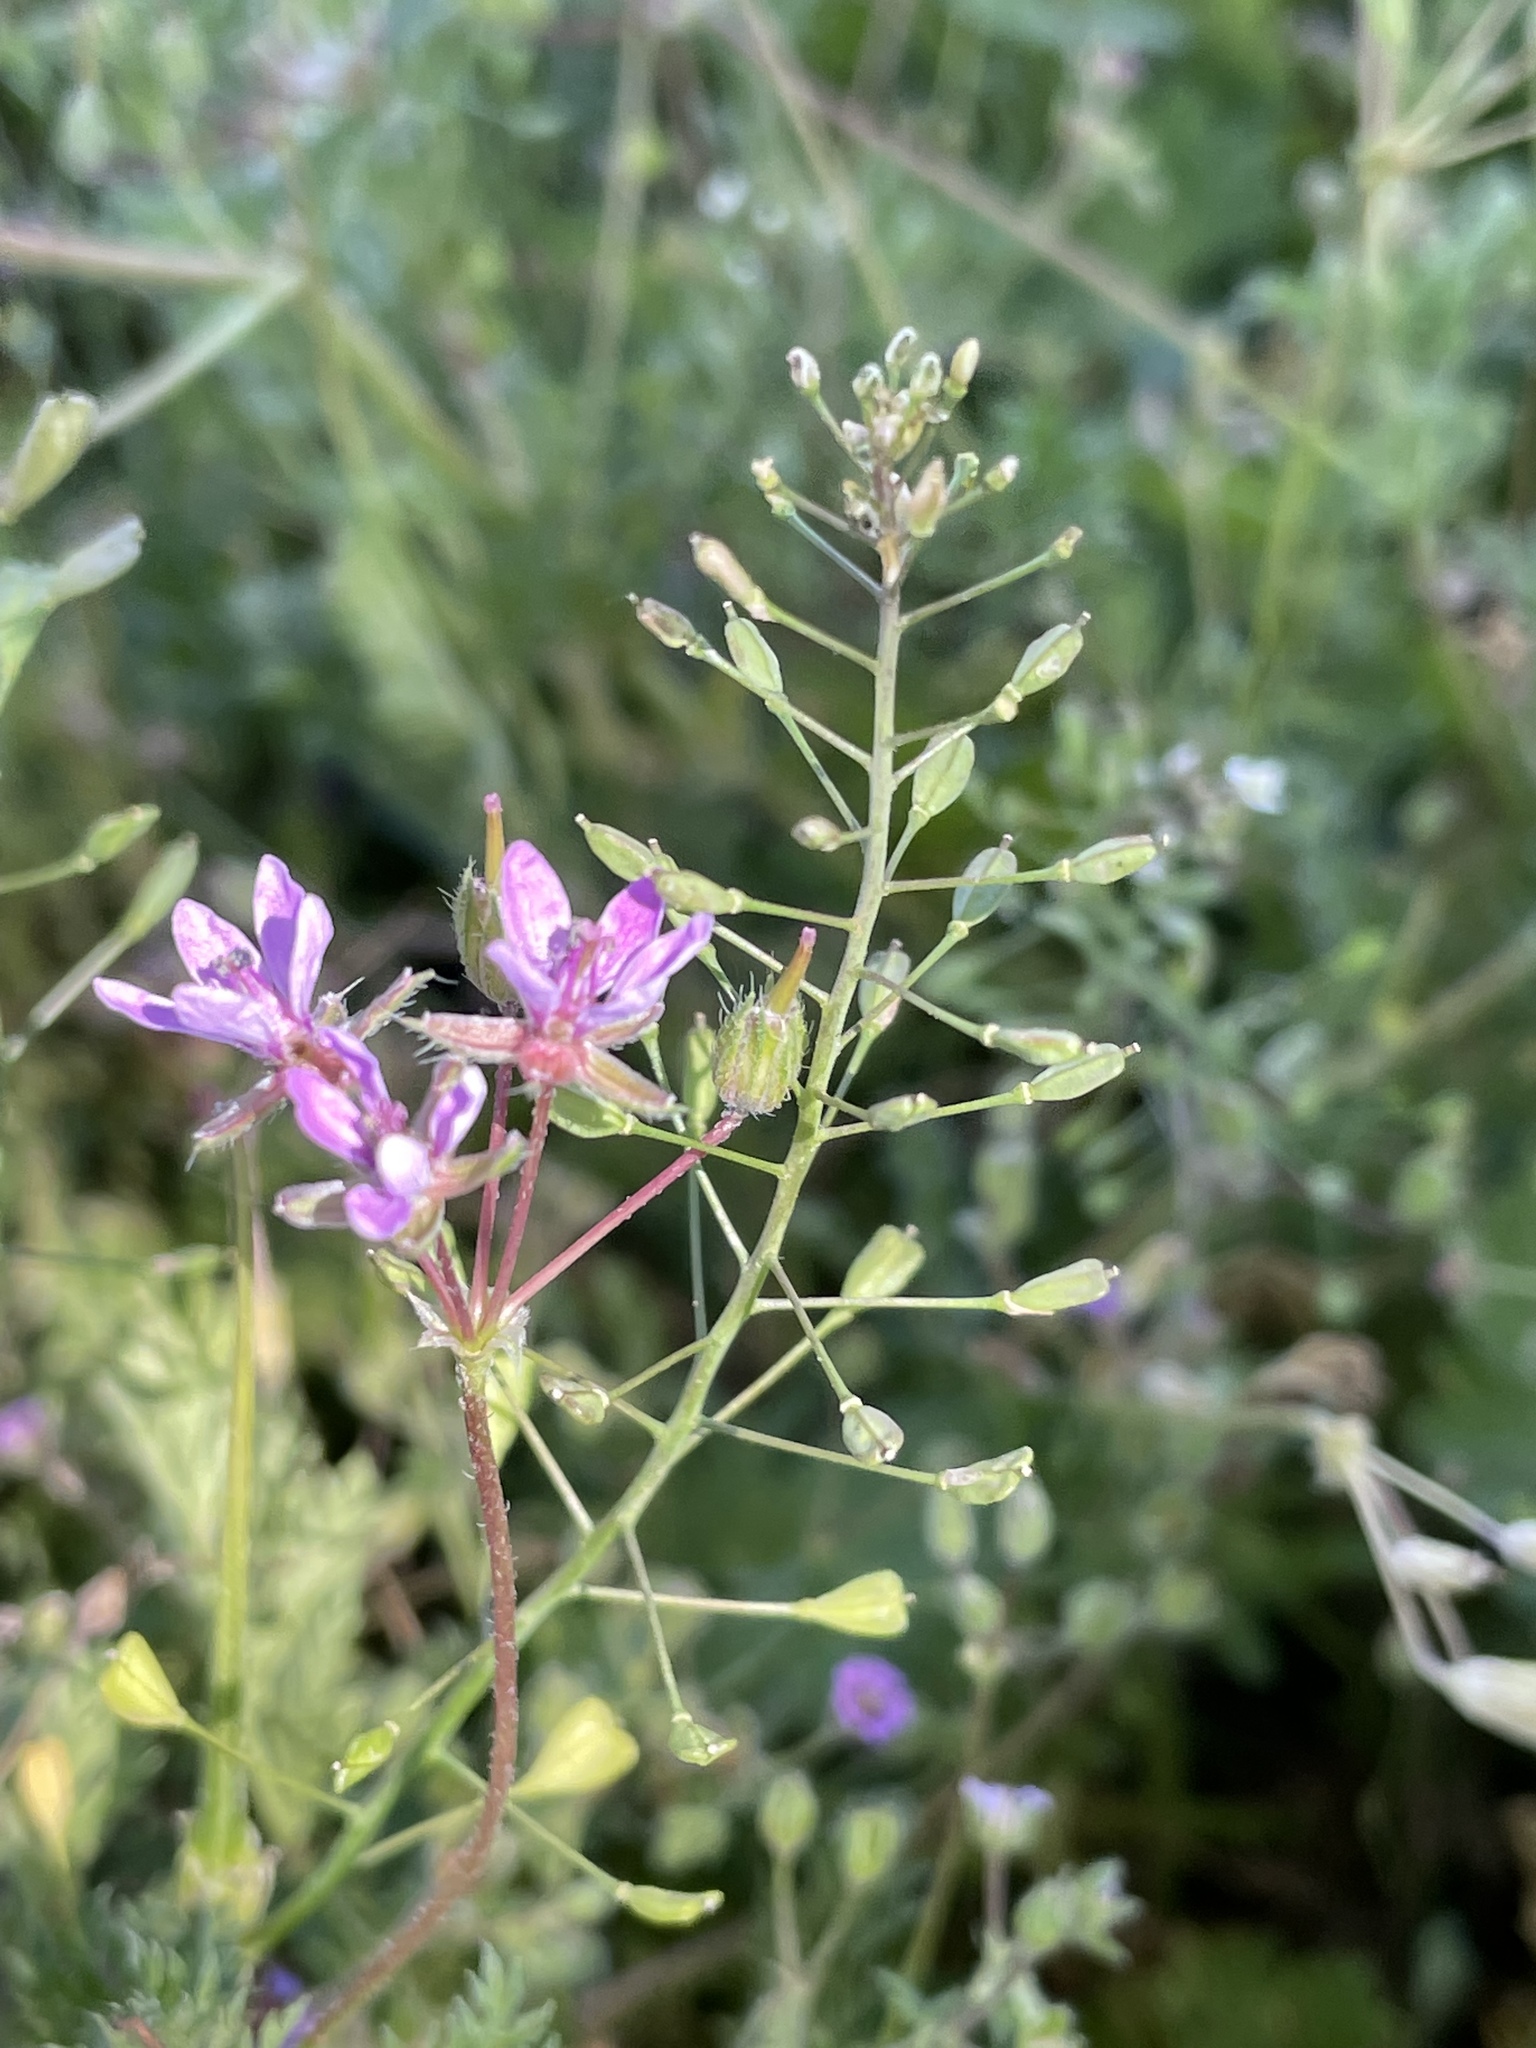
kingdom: Plantae
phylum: Tracheophyta
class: Magnoliopsida
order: Geraniales
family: Geraniaceae
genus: Erodium
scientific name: Erodium cicutarium
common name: Common stork's-bill
